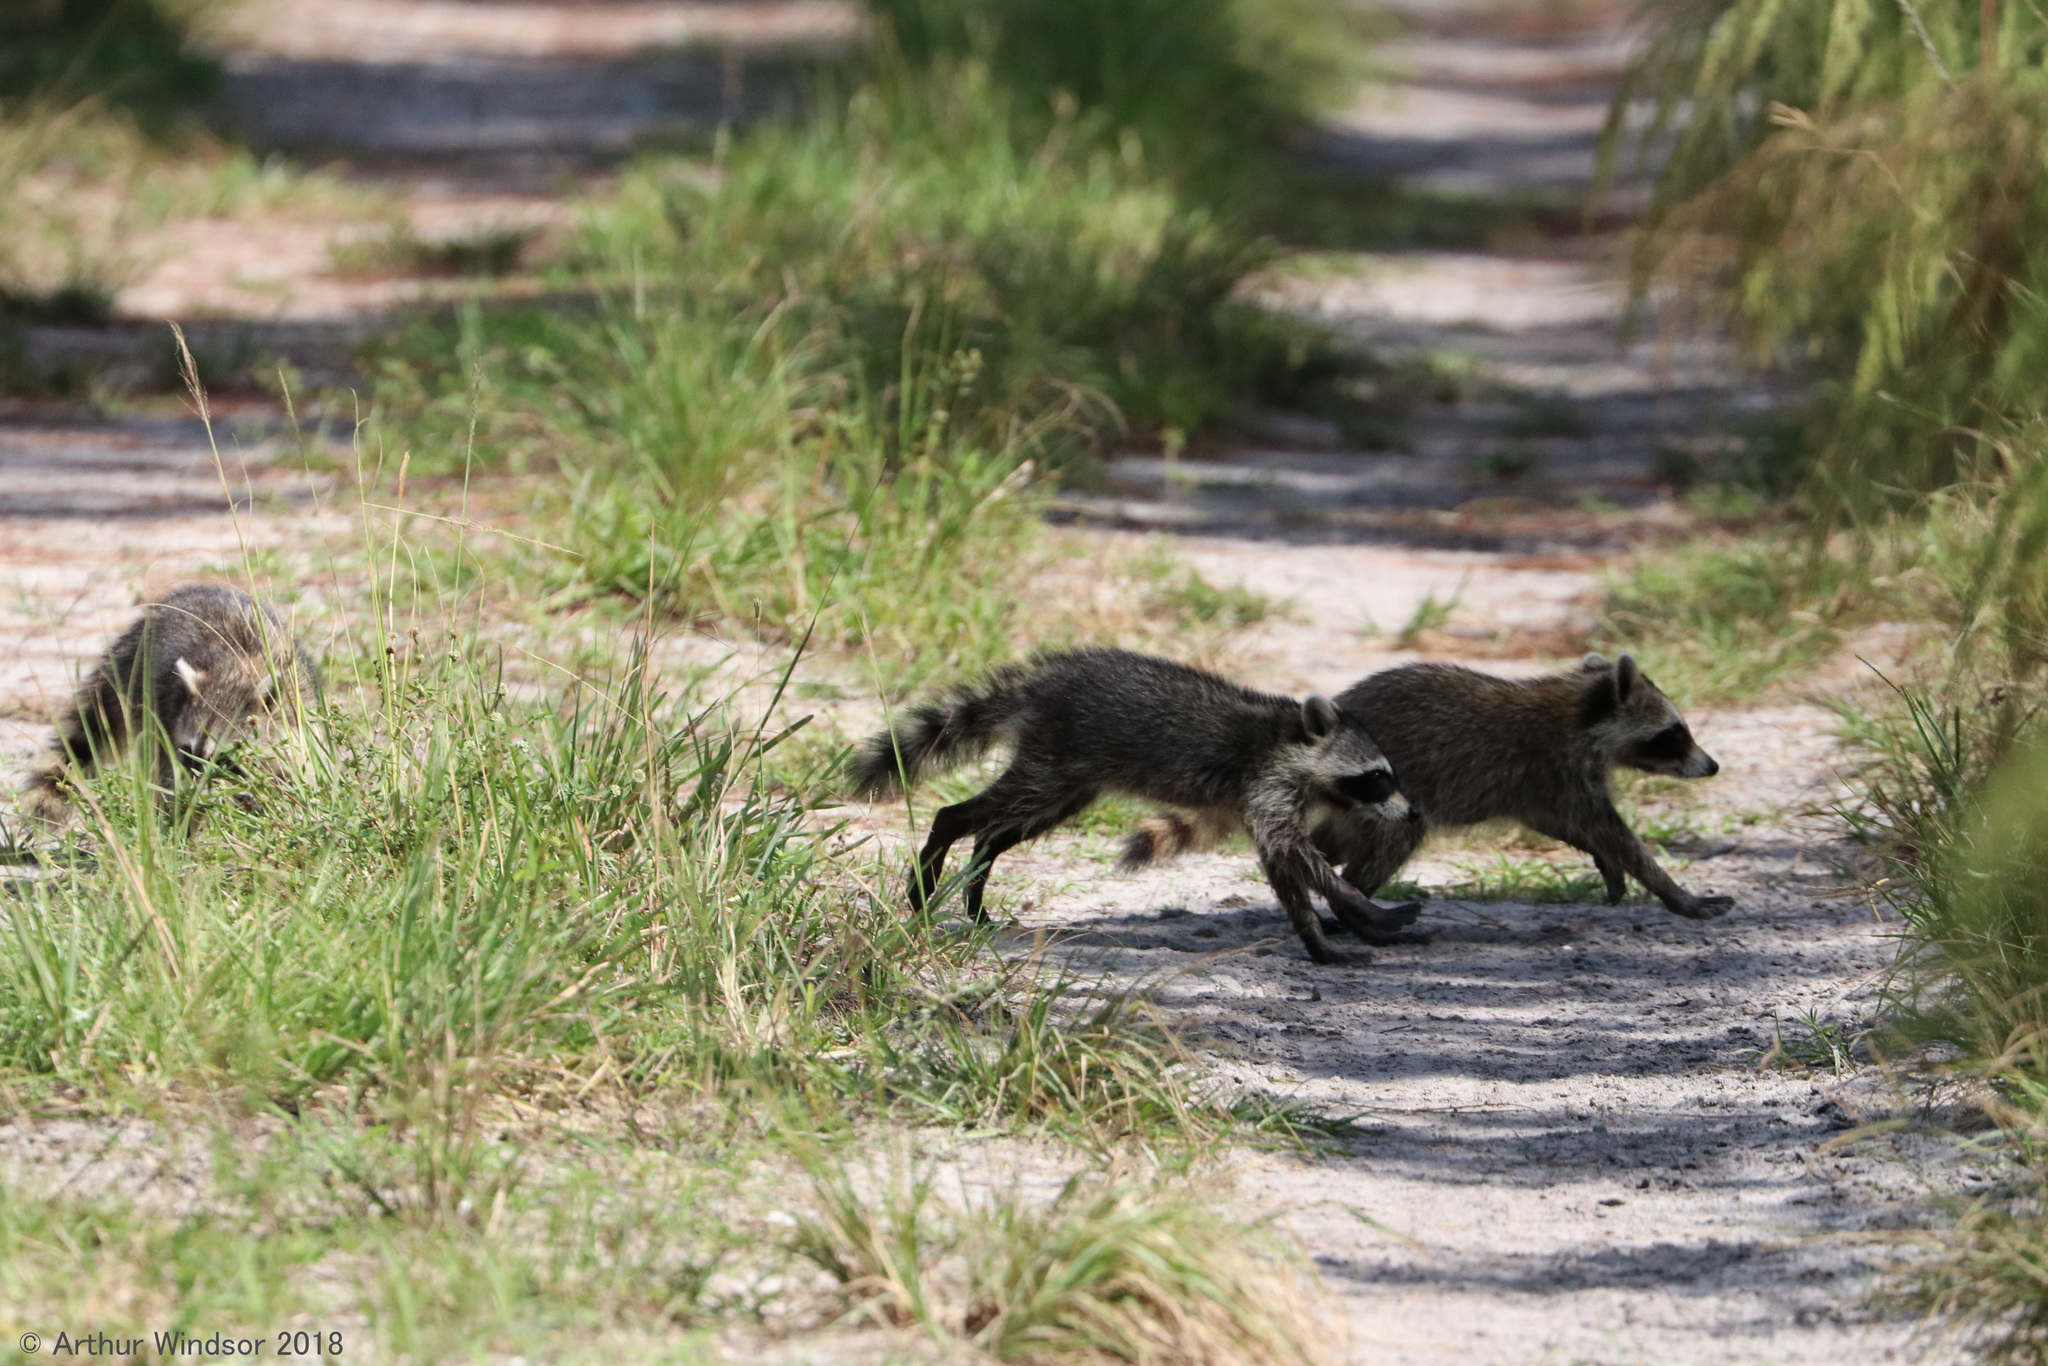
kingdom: Animalia
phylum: Chordata
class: Mammalia
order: Carnivora
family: Procyonidae
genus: Procyon
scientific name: Procyon lotor
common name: Raccoon
